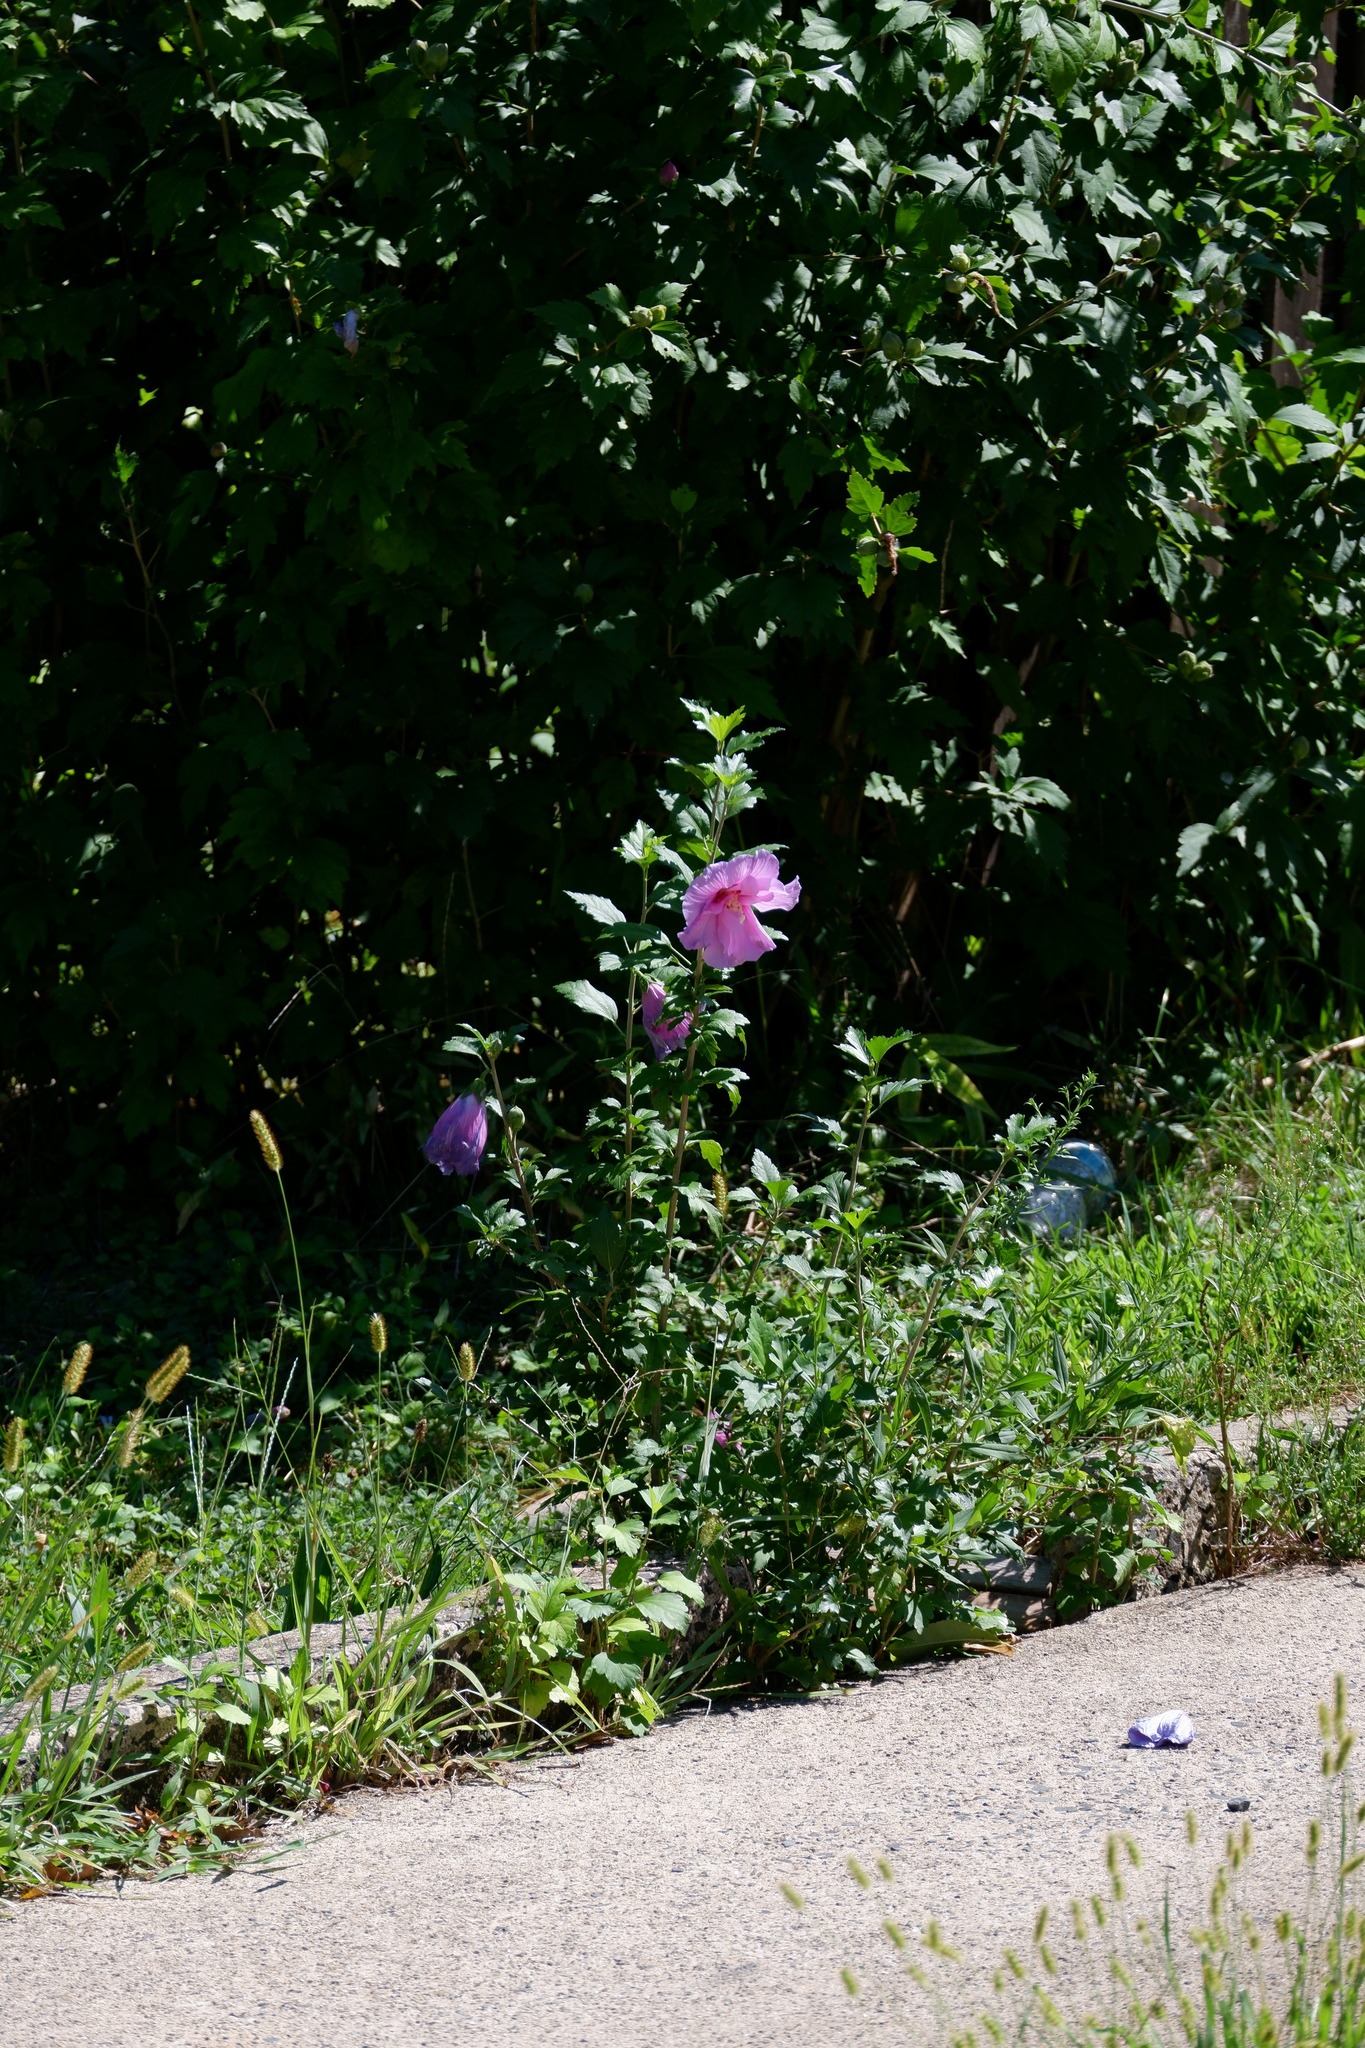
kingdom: Plantae
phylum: Tracheophyta
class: Magnoliopsida
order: Malvales
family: Malvaceae
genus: Hibiscus
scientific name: Hibiscus syriacus
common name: Syrian ketmia
